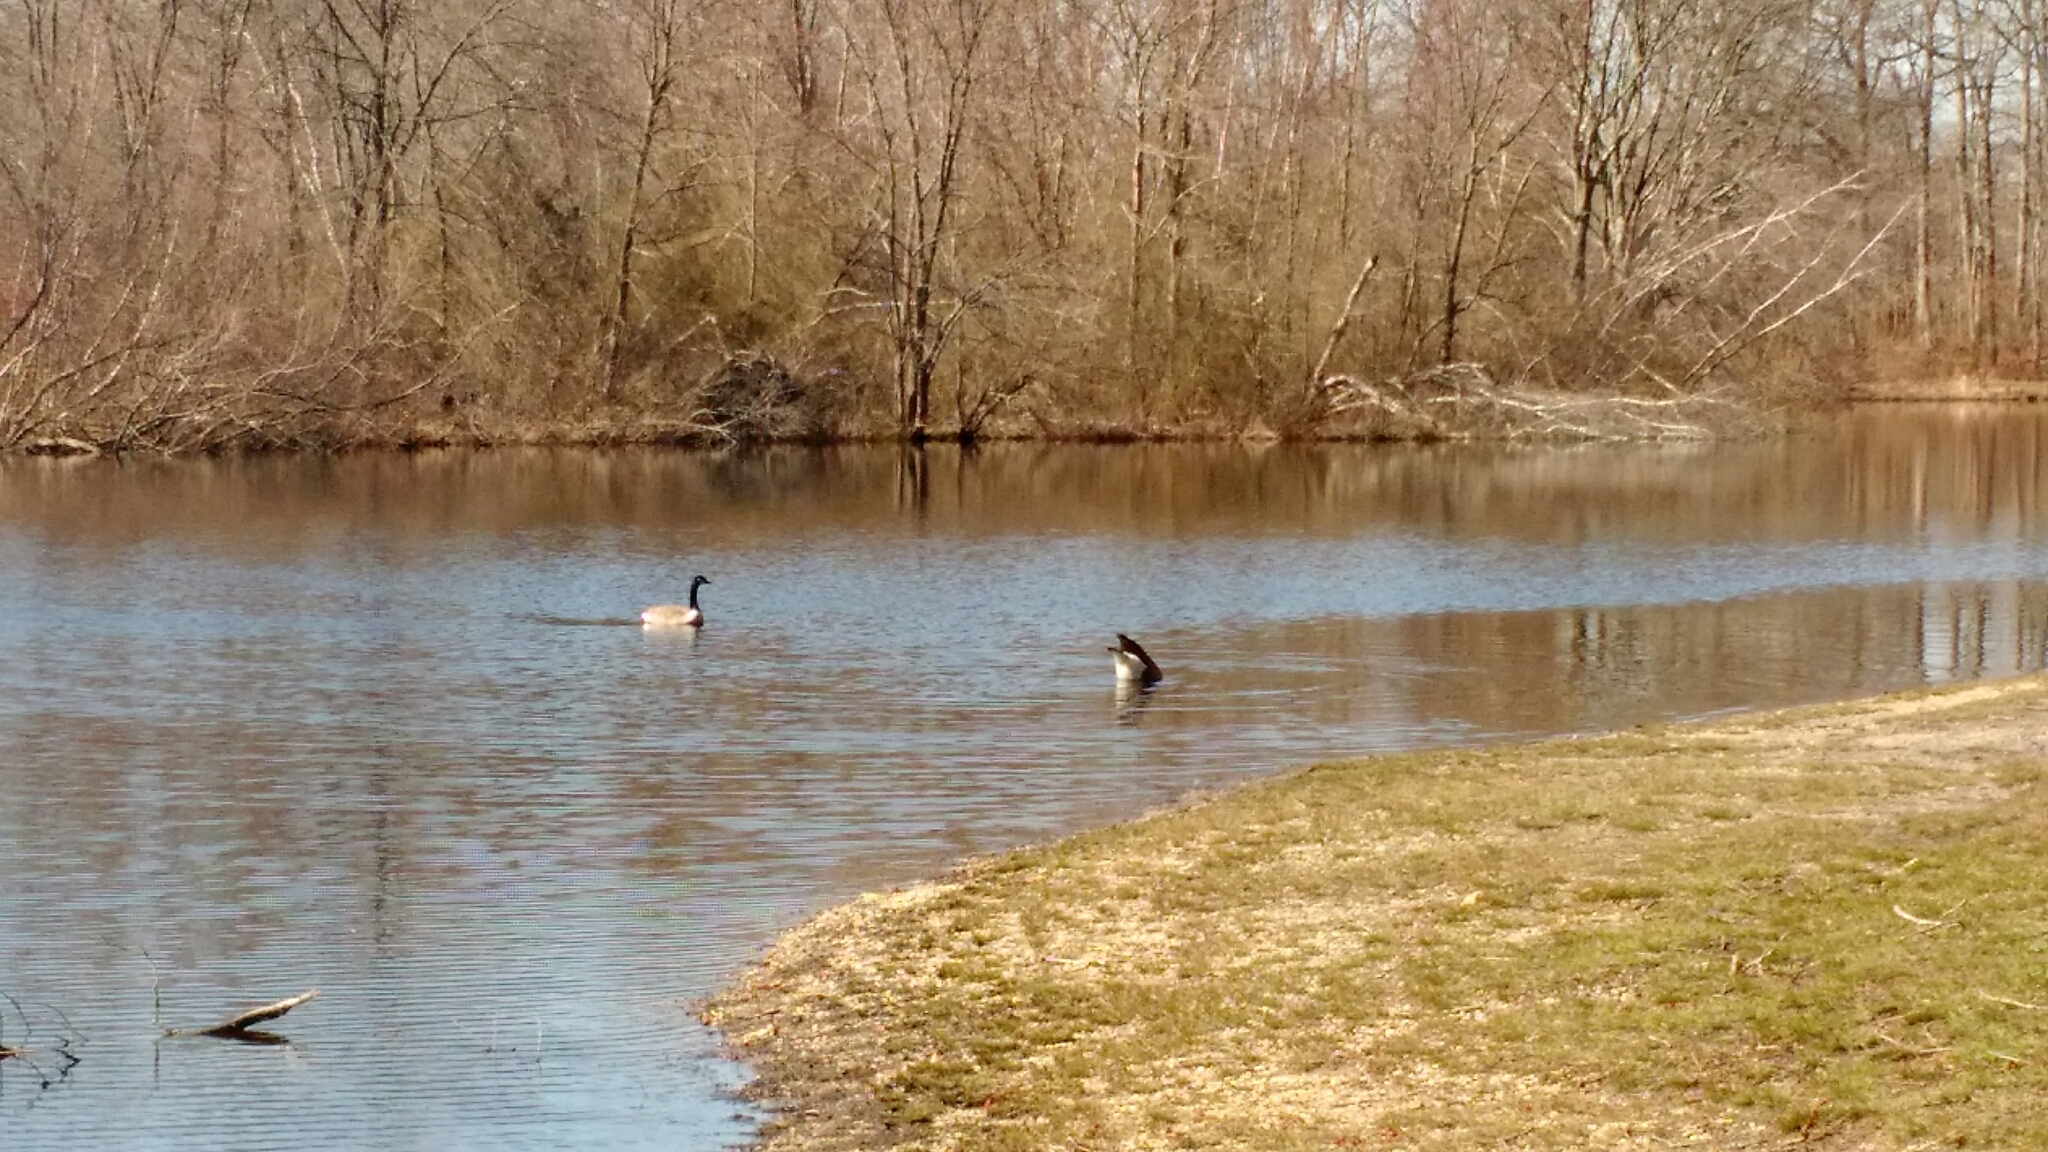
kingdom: Animalia
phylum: Chordata
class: Aves
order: Anseriformes
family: Anatidae
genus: Branta
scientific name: Branta canadensis
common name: Canada goose
